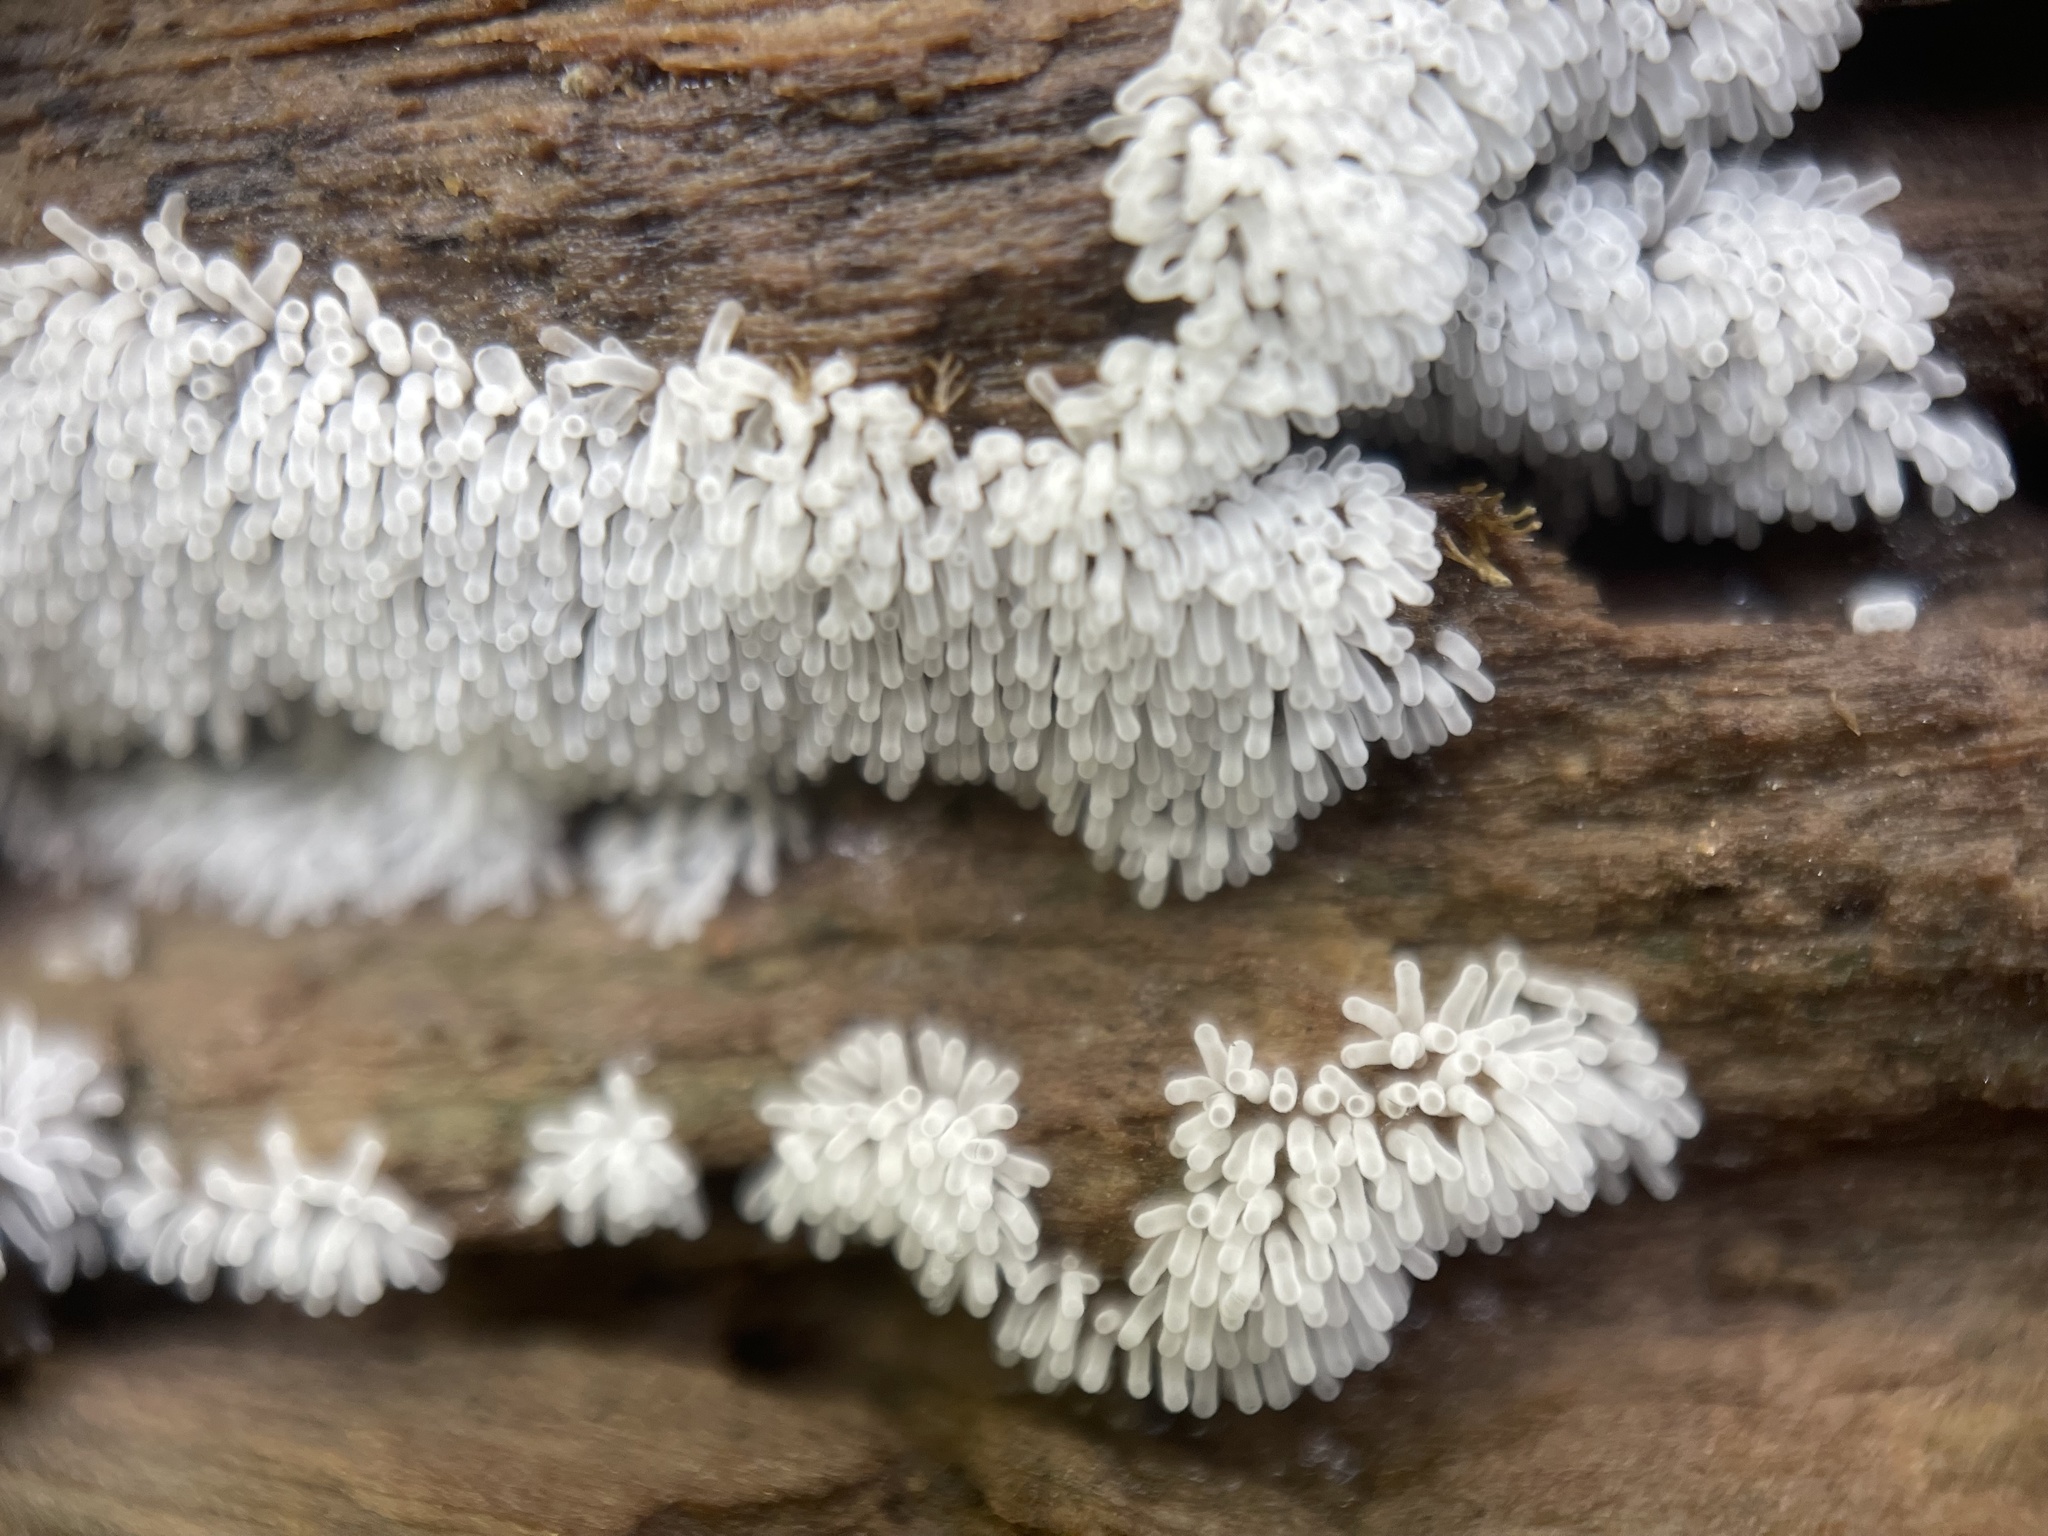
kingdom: Protozoa
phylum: Mycetozoa
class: Protosteliomycetes
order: Ceratiomyxales
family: Ceratiomyxaceae
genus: Ceratiomyxa
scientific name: Ceratiomyxa fruticulosa
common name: Honeycomb coral slime mold
